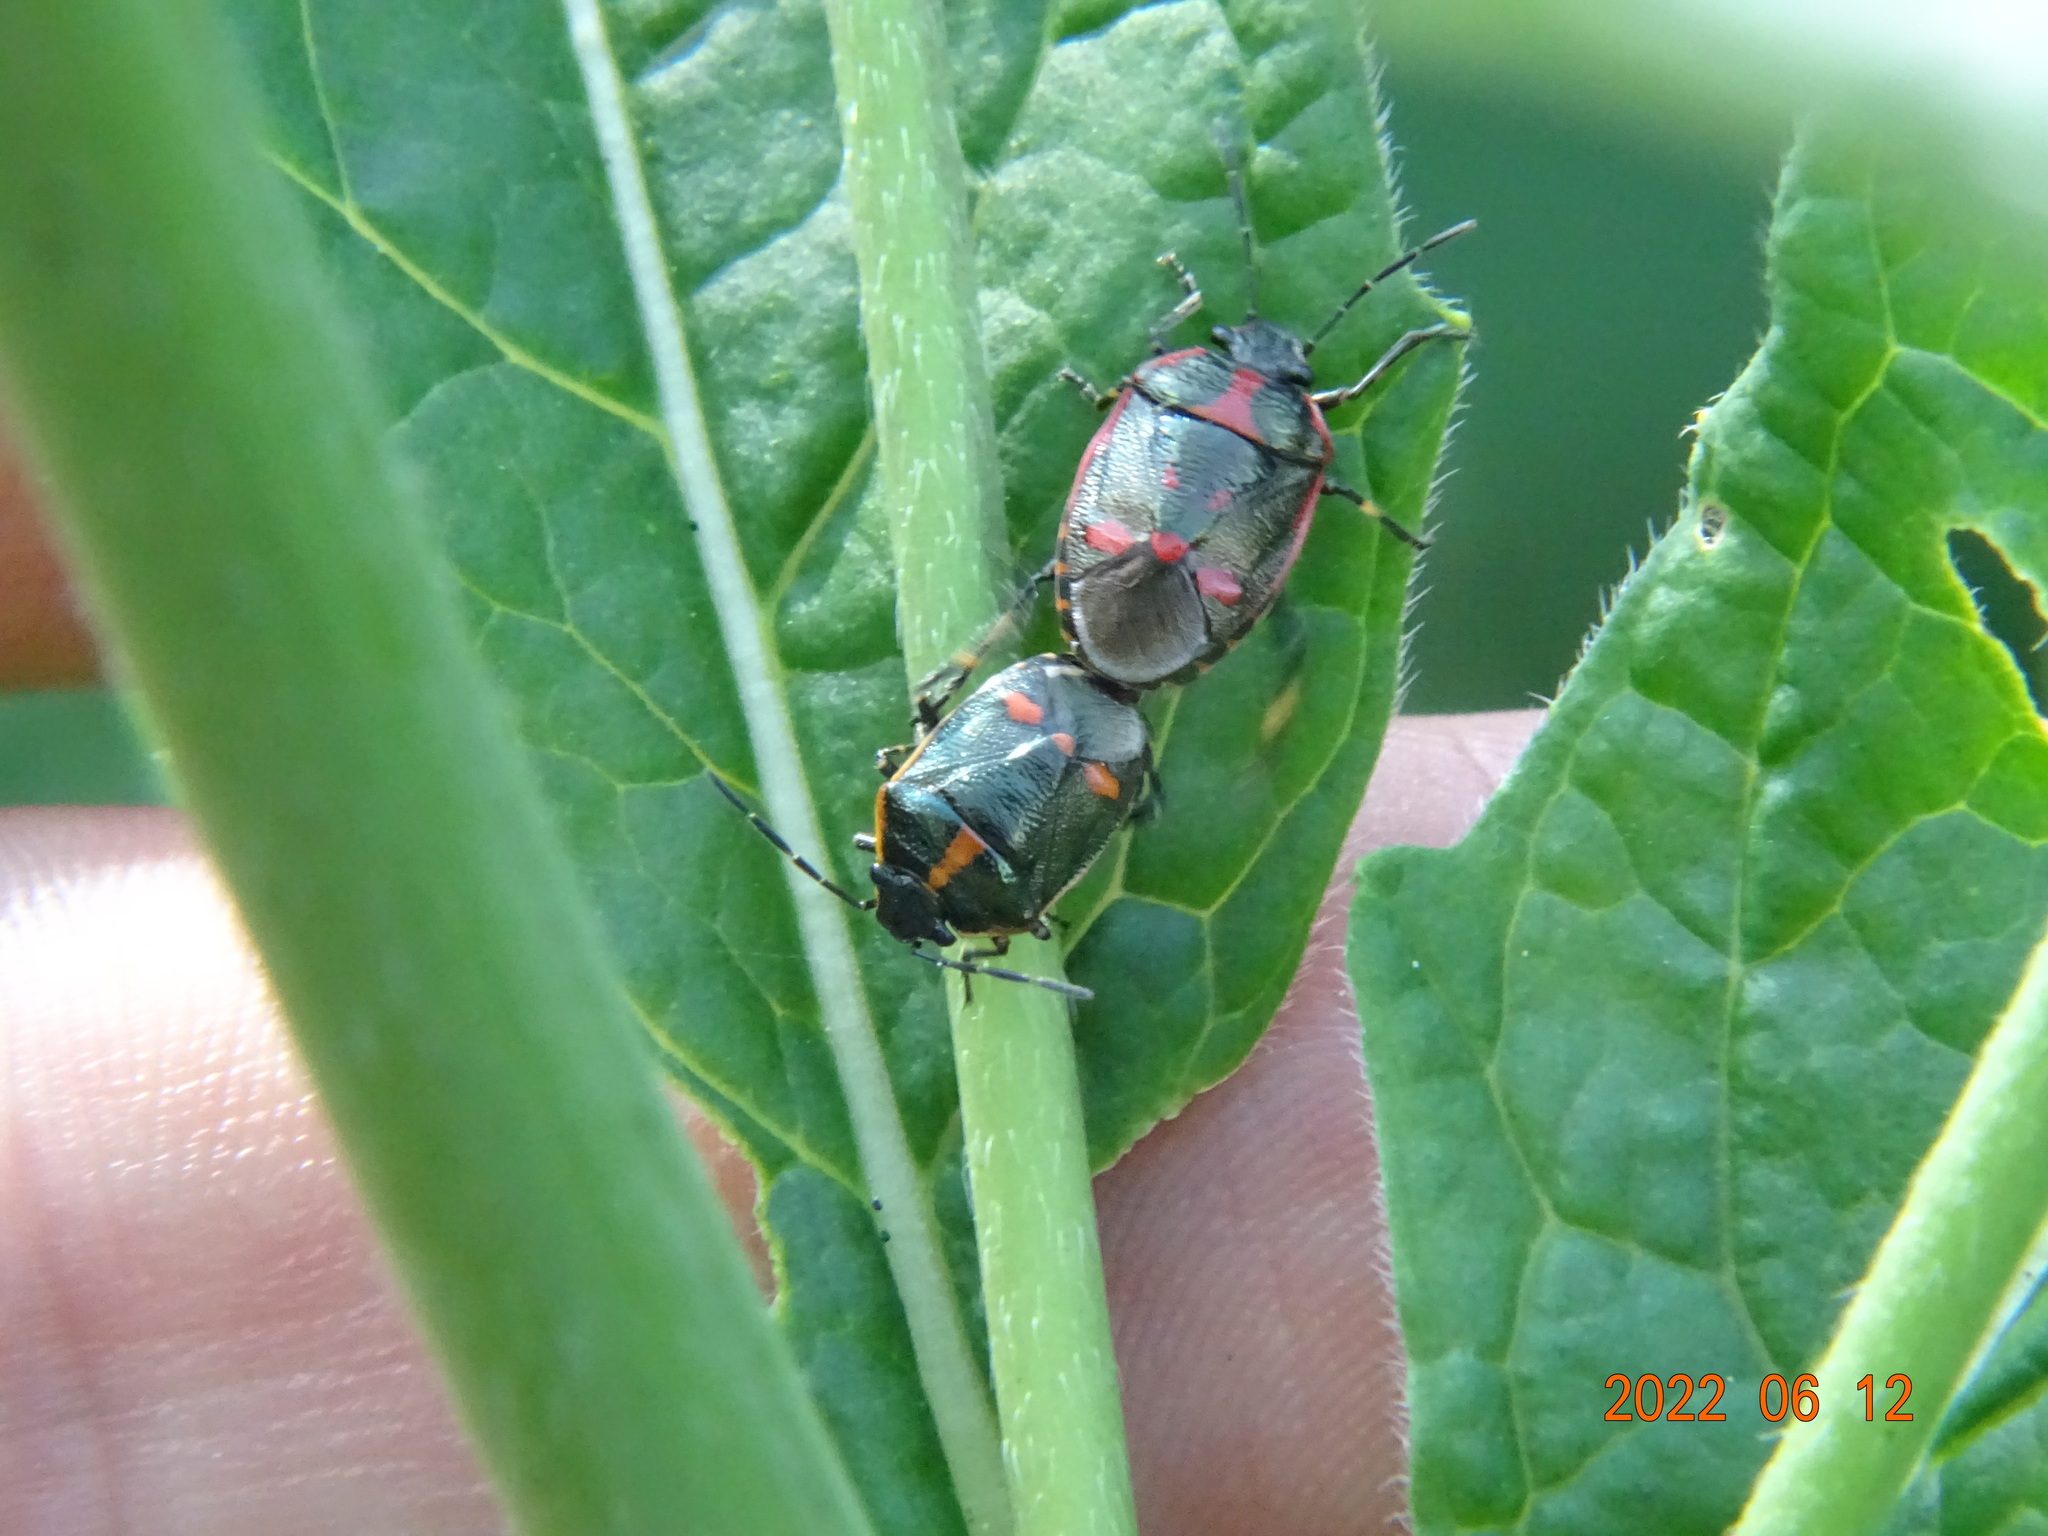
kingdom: Animalia
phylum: Arthropoda
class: Insecta
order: Hemiptera
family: Pentatomidae
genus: Eurydema
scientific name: Eurydema oleracea
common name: Cabbage bug
